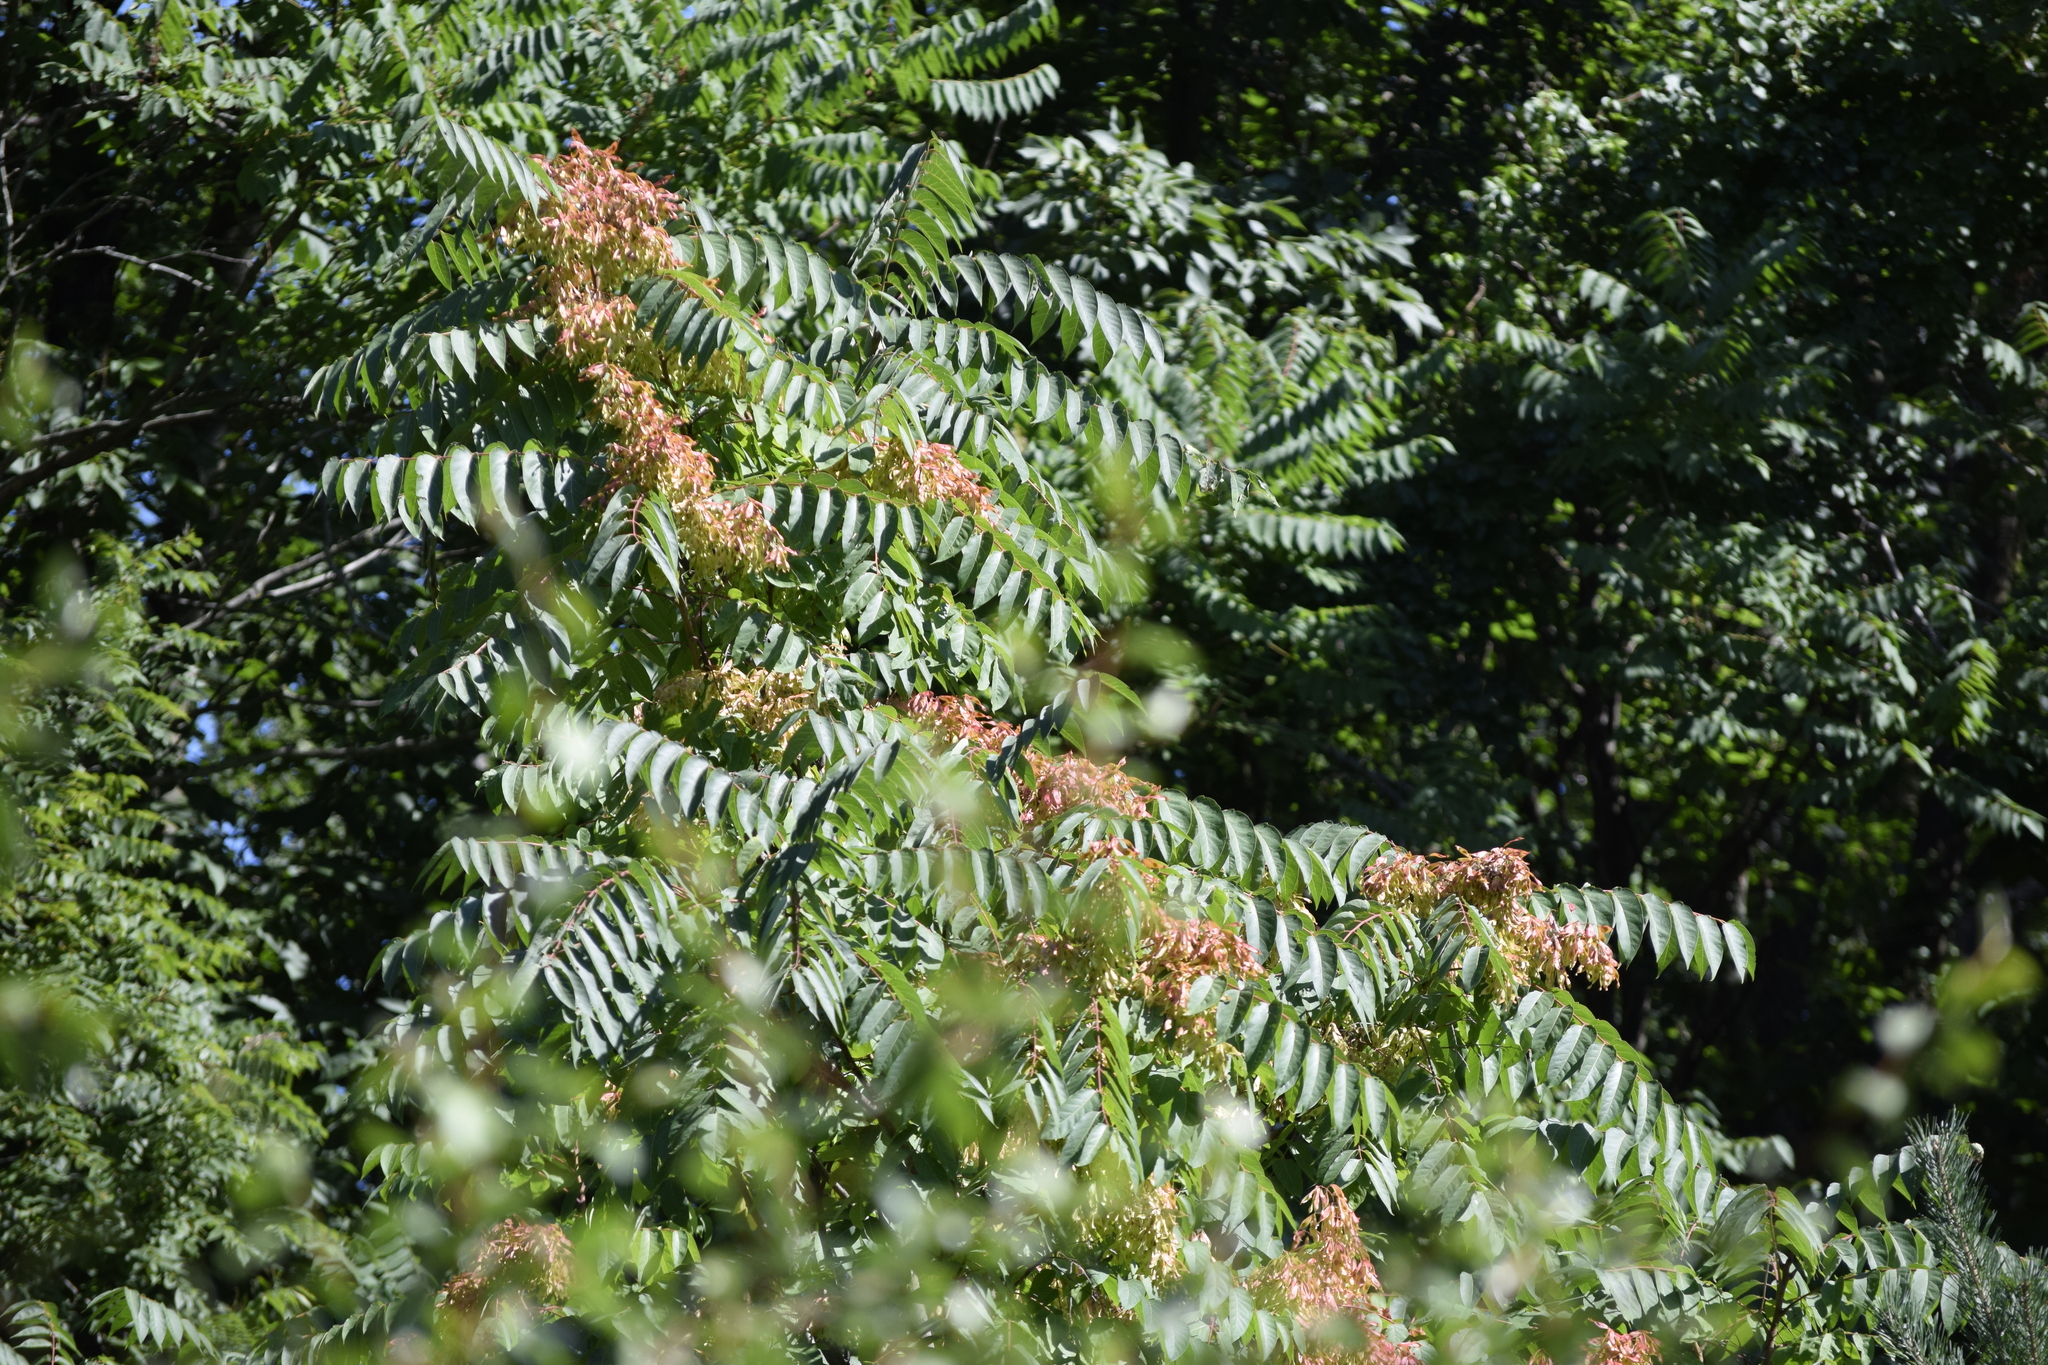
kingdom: Plantae
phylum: Tracheophyta
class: Magnoliopsida
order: Sapindales
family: Simaroubaceae
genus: Ailanthus
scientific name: Ailanthus altissima
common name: Tree-of-heaven
